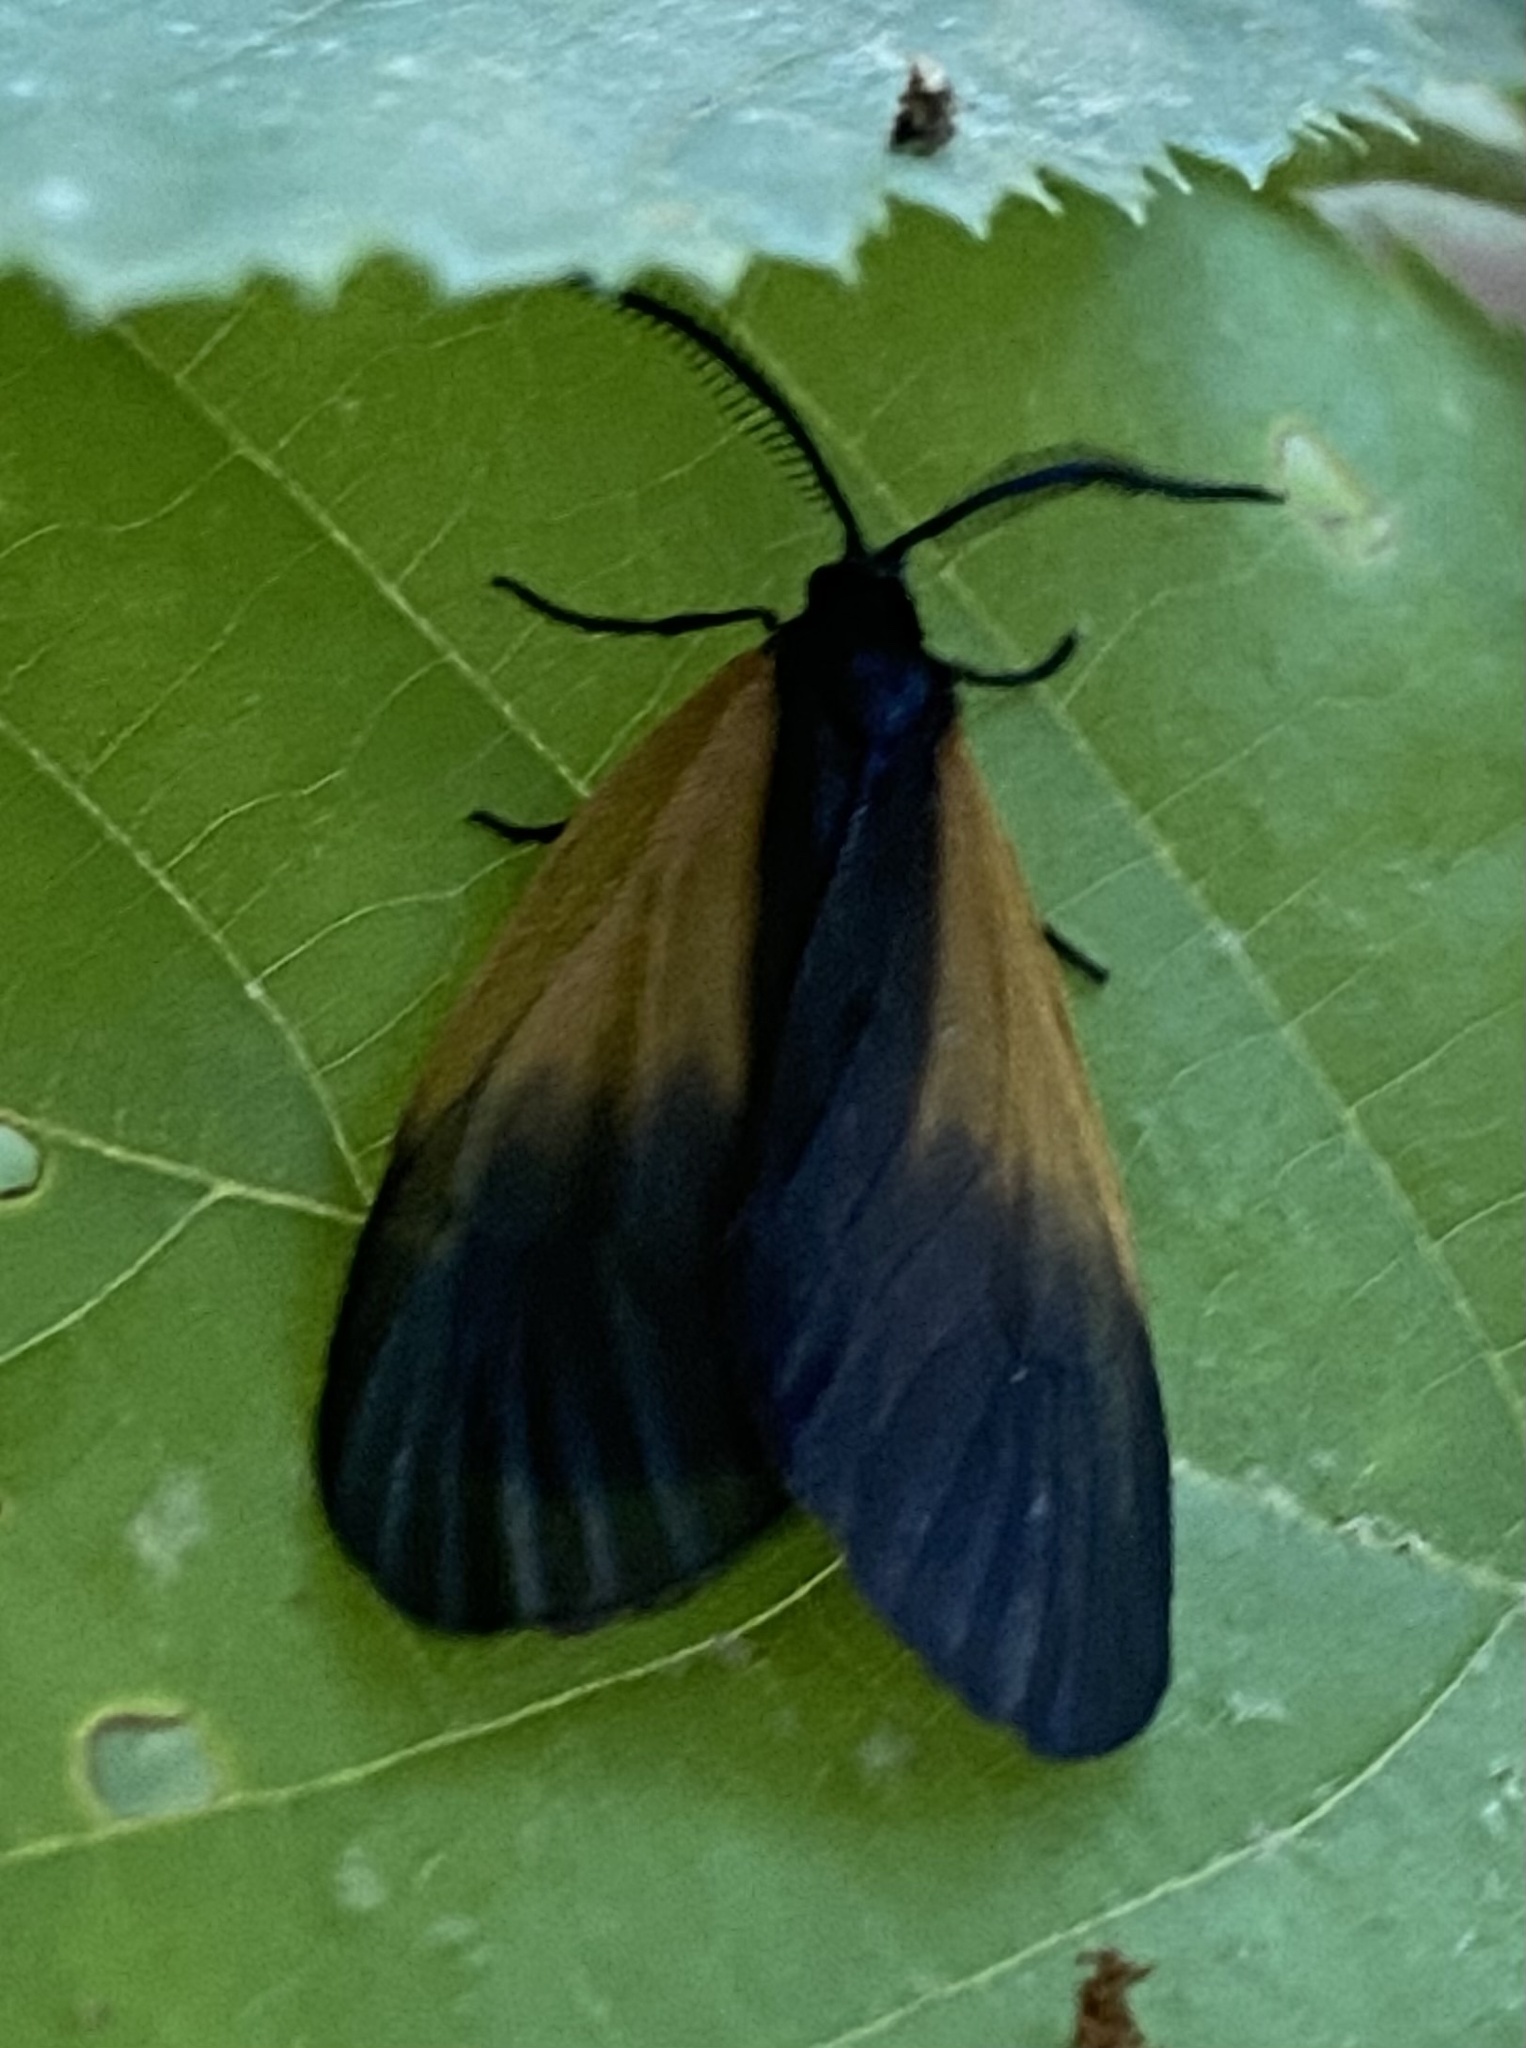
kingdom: Animalia
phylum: Arthropoda
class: Insecta
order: Lepidoptera
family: Zygaenidae
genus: Malthaca
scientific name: Malthaca dimidiata
